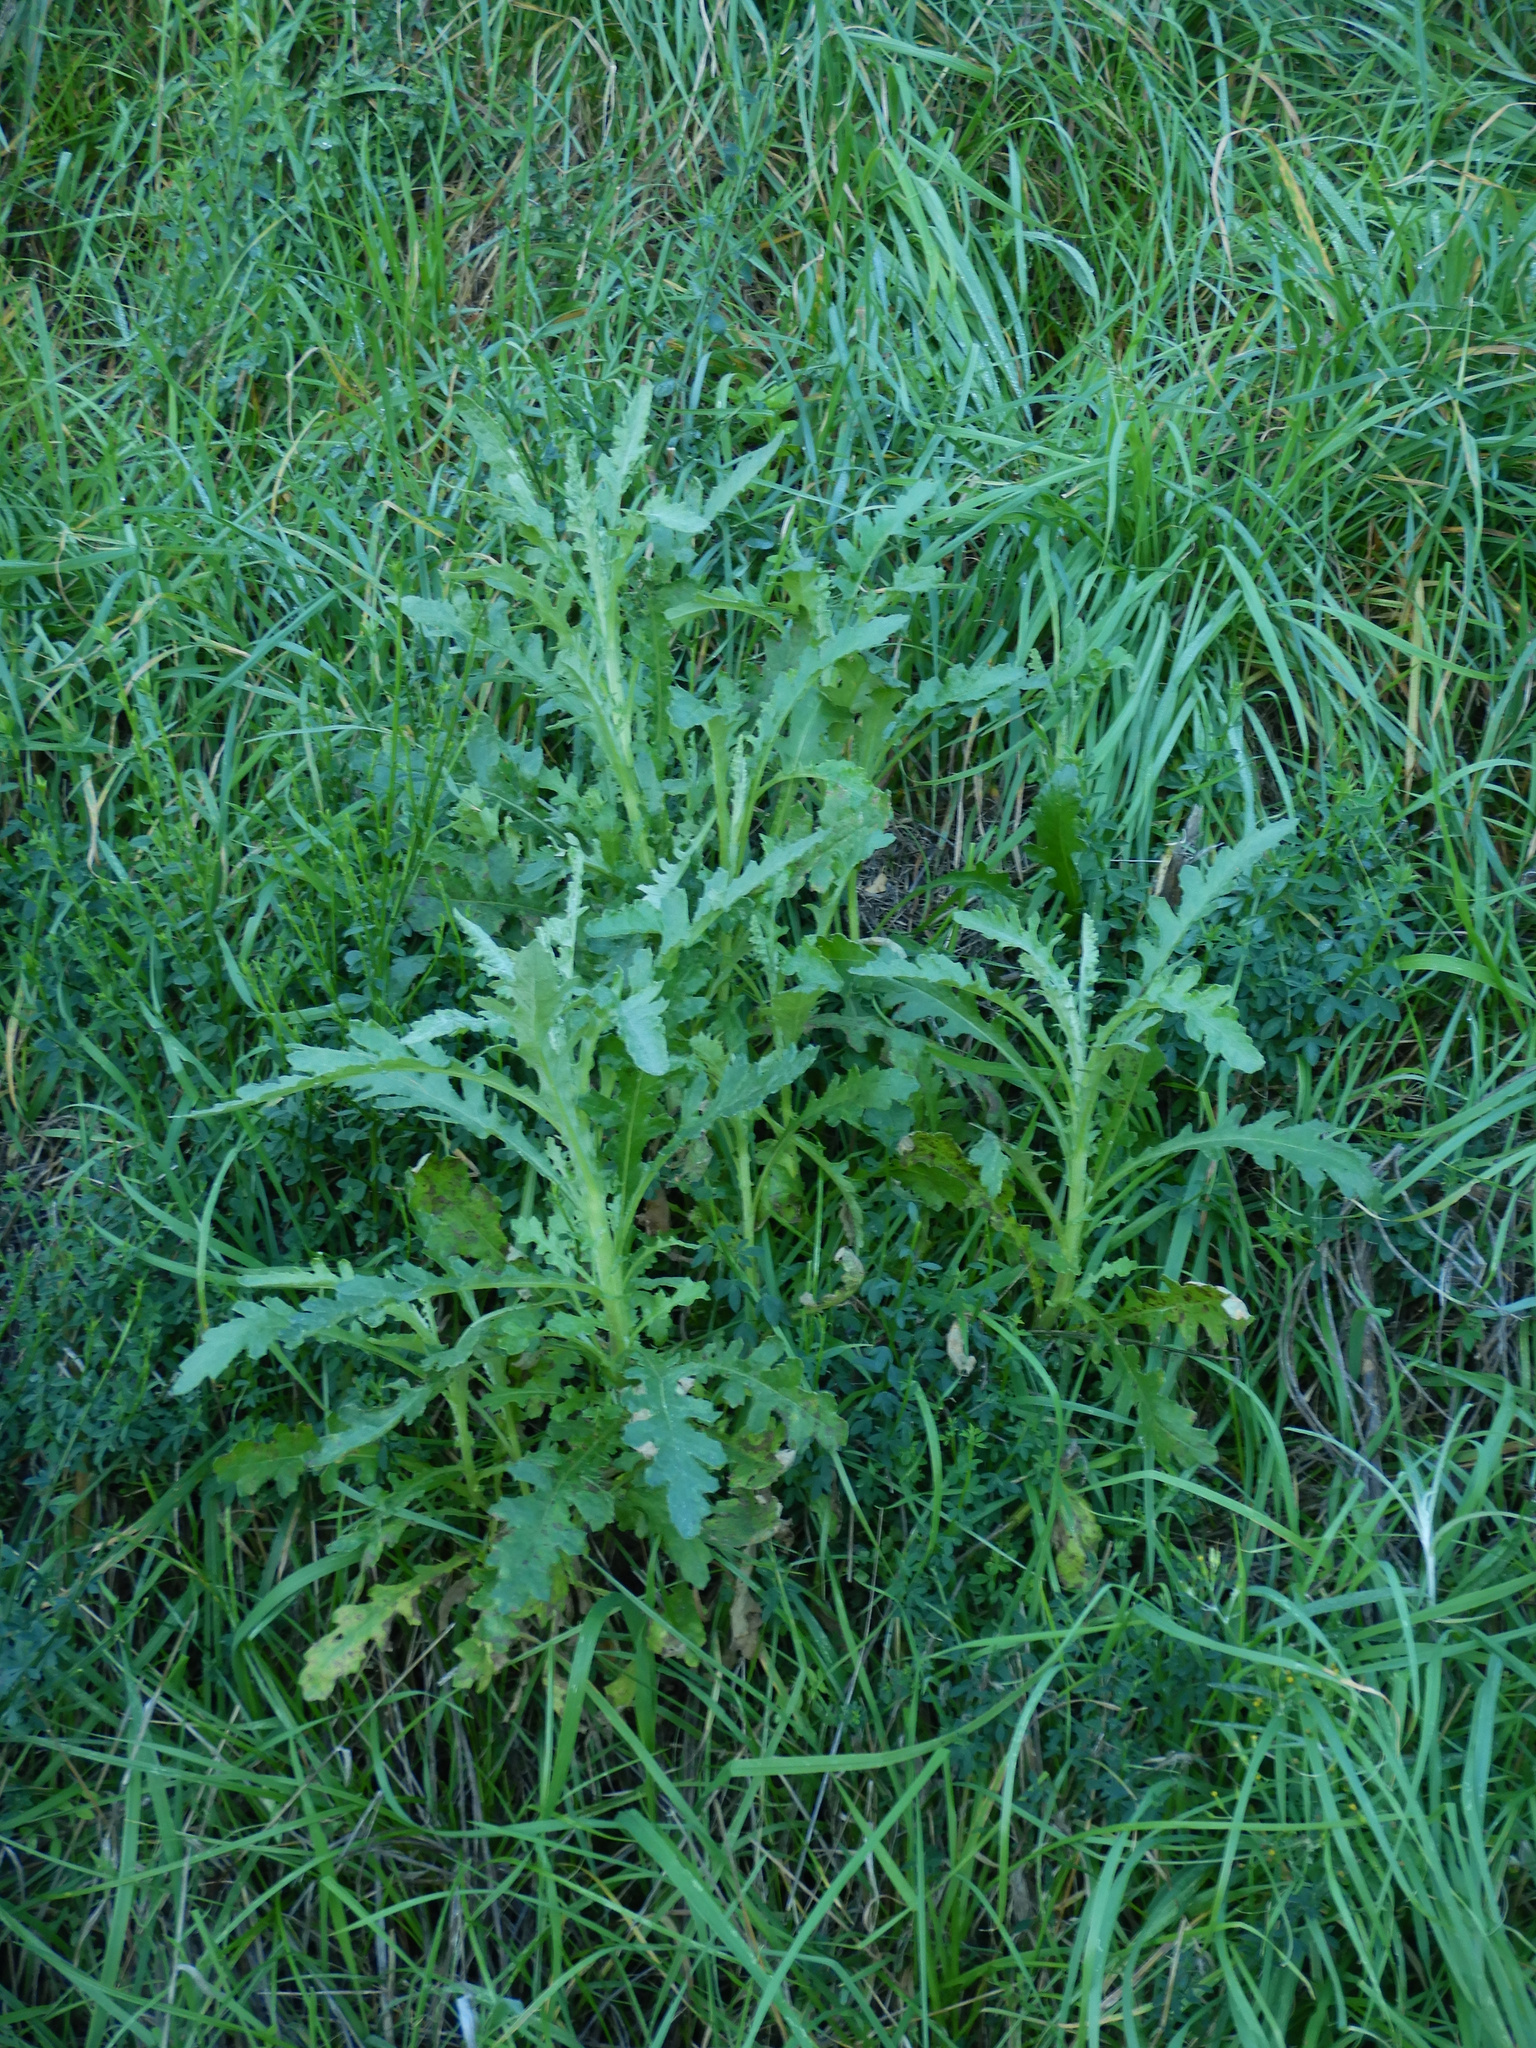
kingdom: Plantae
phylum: Tracheophyta
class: Magnoliopsida
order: Asterales
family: Asteraceae
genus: Senecio
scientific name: Senecio glomeratus
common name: Cutleaf burnweed
